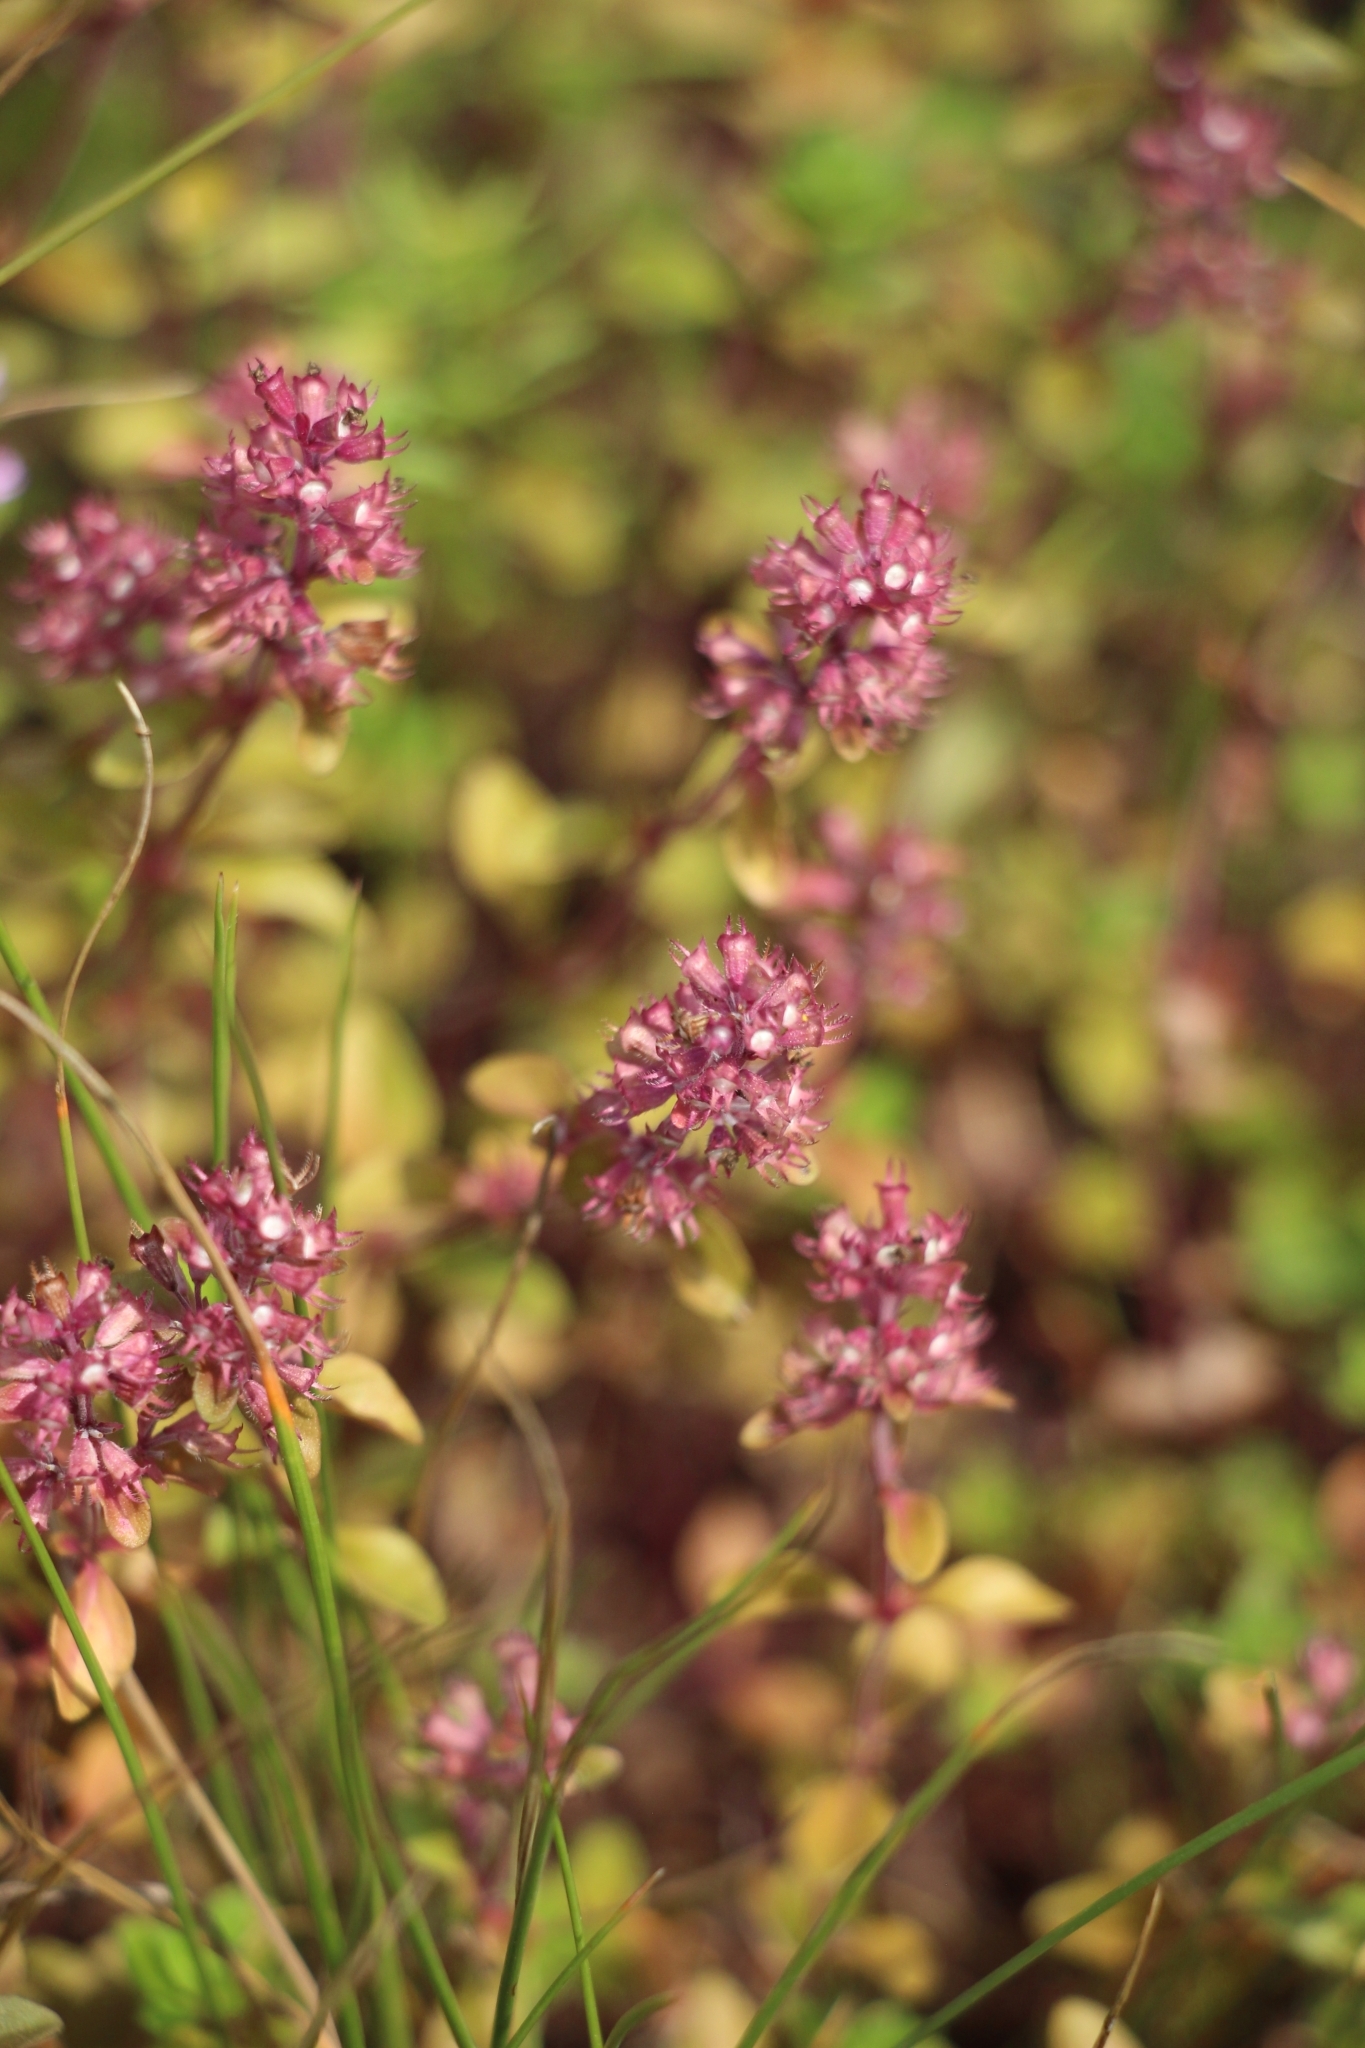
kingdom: Plantae
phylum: Tracheophyta
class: Magnoliopsida
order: Lamiales
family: Lamiaceae
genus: Thymus
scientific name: Thymus pulegioides
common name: Large thyme
